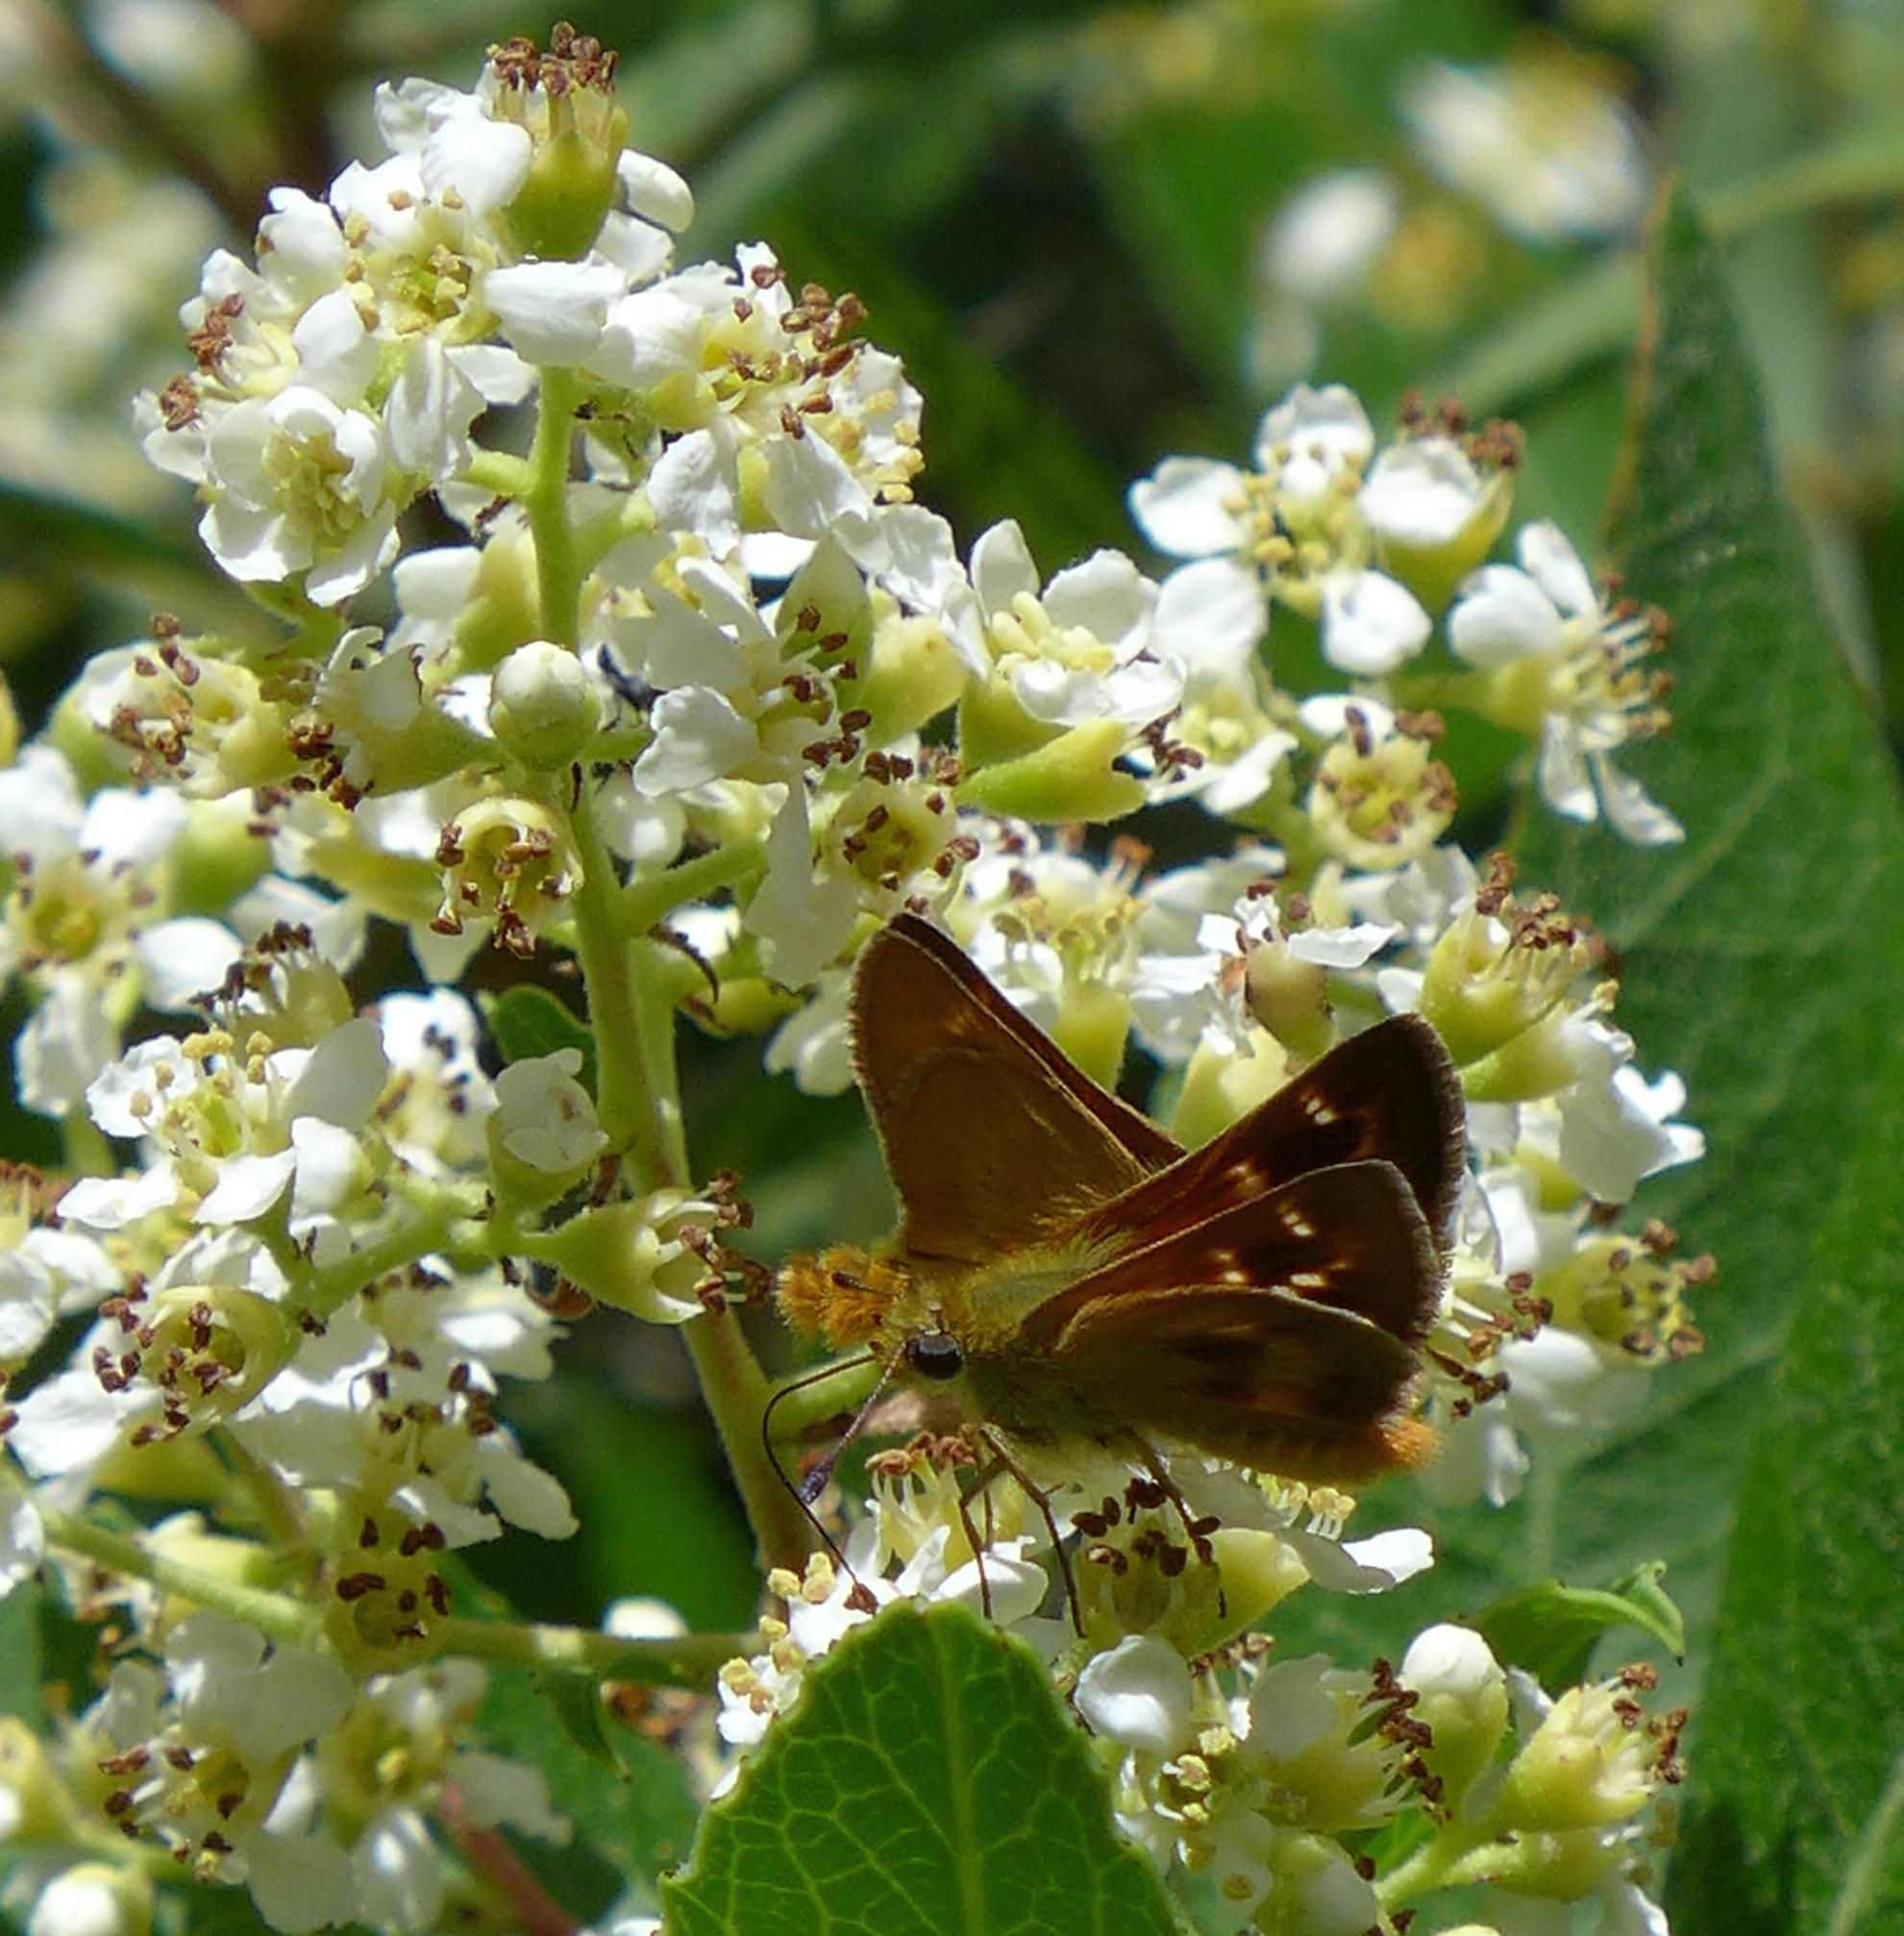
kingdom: Animalia
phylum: Arthropoda
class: Insecta
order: Lepidoptera
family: Hesperiidae
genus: Ochlodes
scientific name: Ochlodes agricola
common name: Rural skipper
